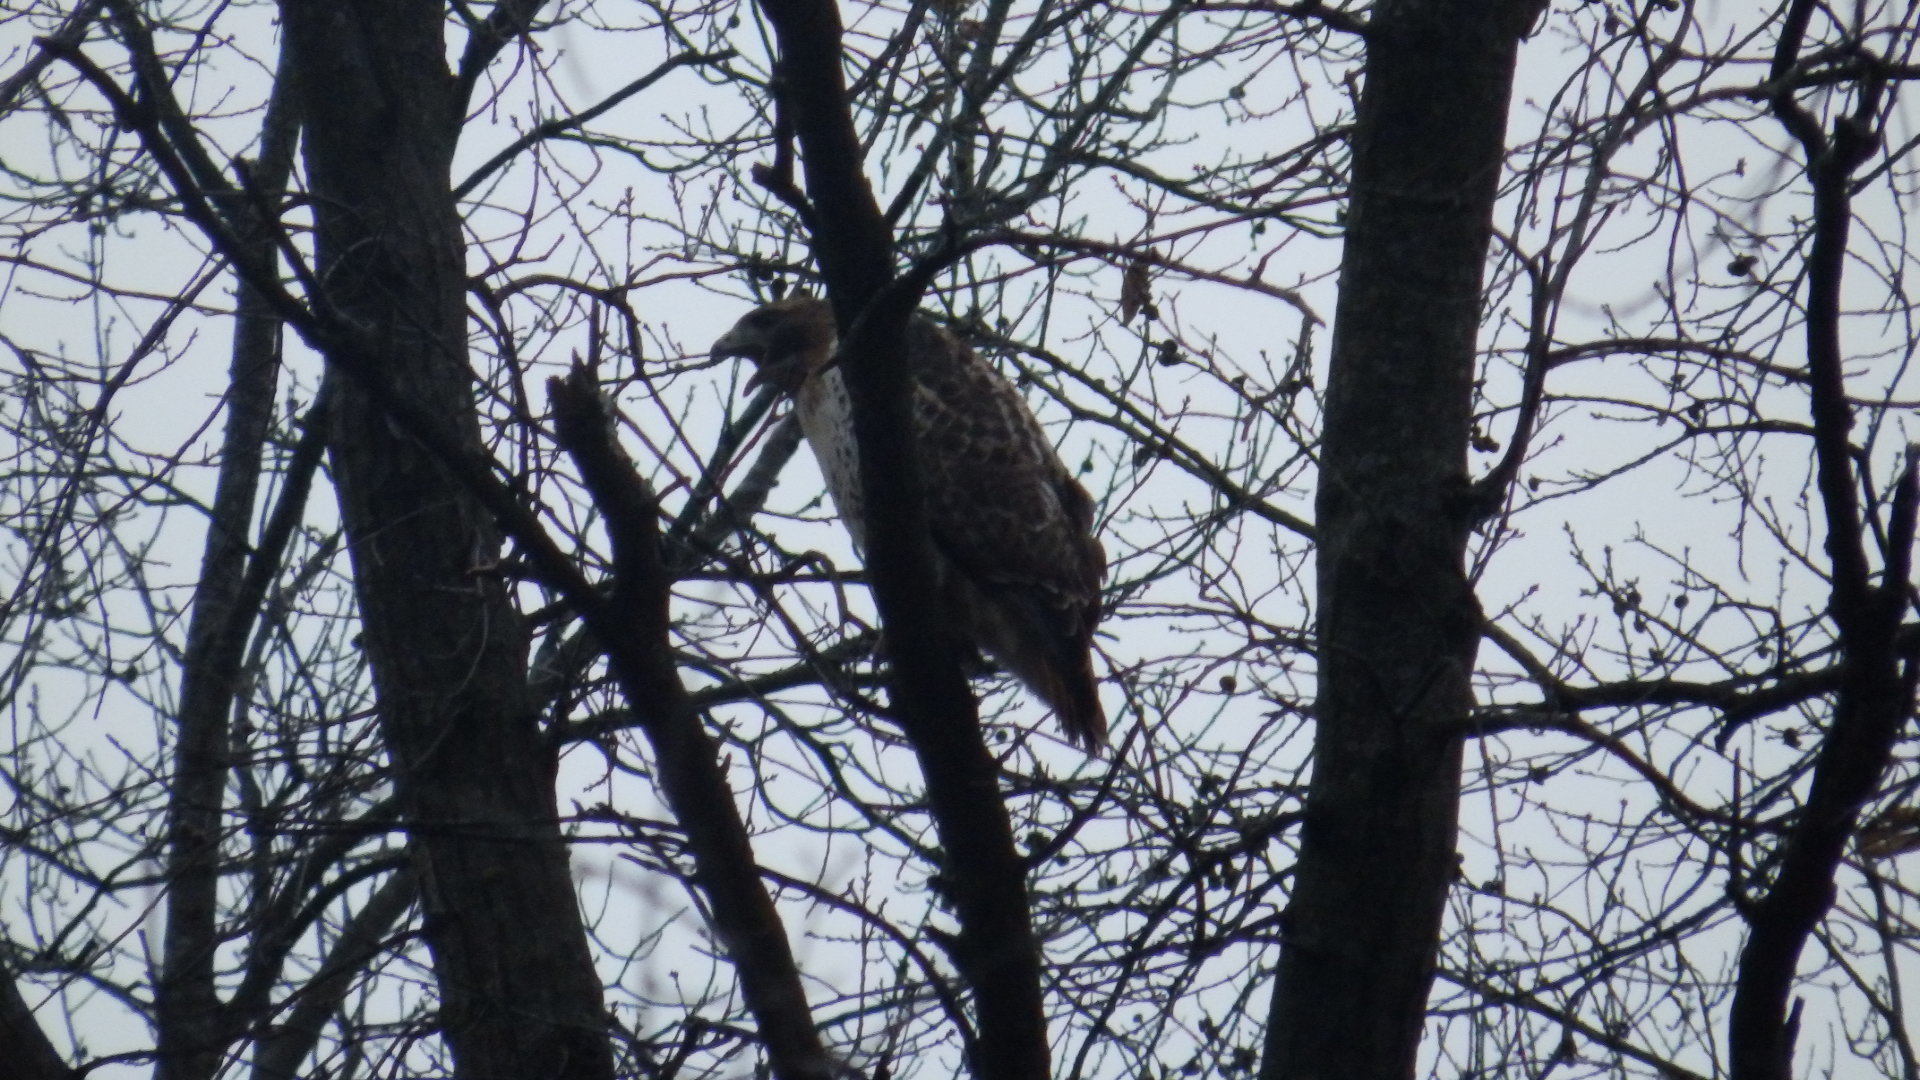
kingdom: Animalia
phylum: Chordata
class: Aves
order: Accipitriformes
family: Accipitridae
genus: Buteo
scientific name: Buteo jamaicensis
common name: Red-tailed hawk
